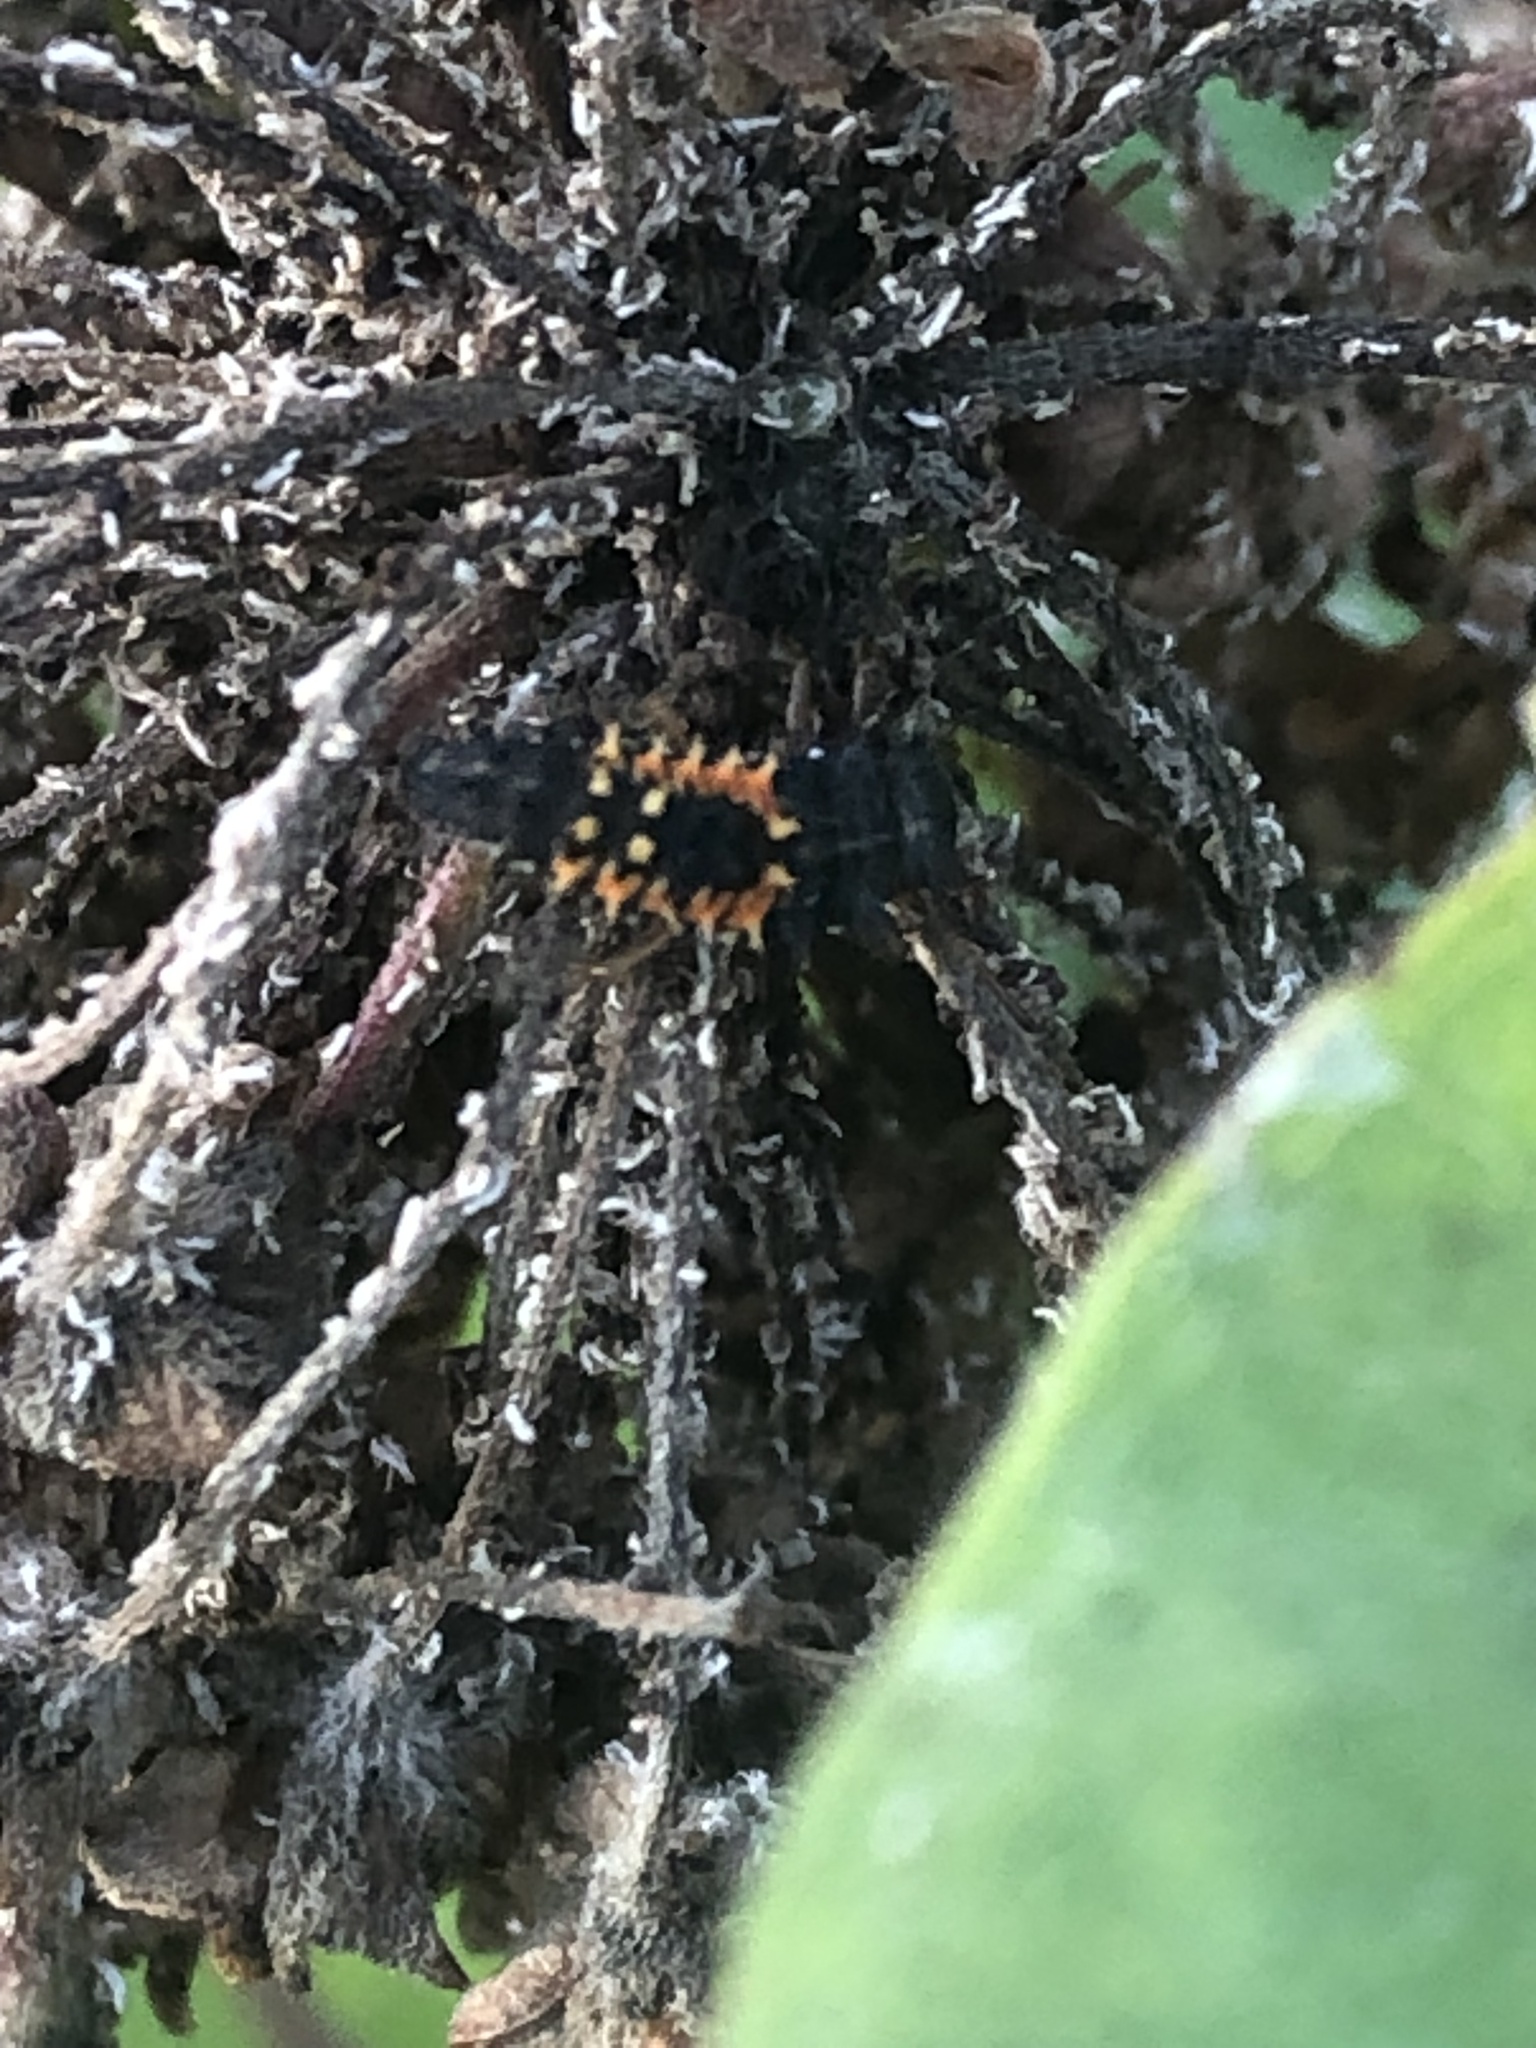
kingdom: Animalia
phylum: Arthropoda
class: Insecta
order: Coleoptera
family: Coccinellidae
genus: Harmonia
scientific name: Harmonia axyridis
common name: Harlequin ladybird
